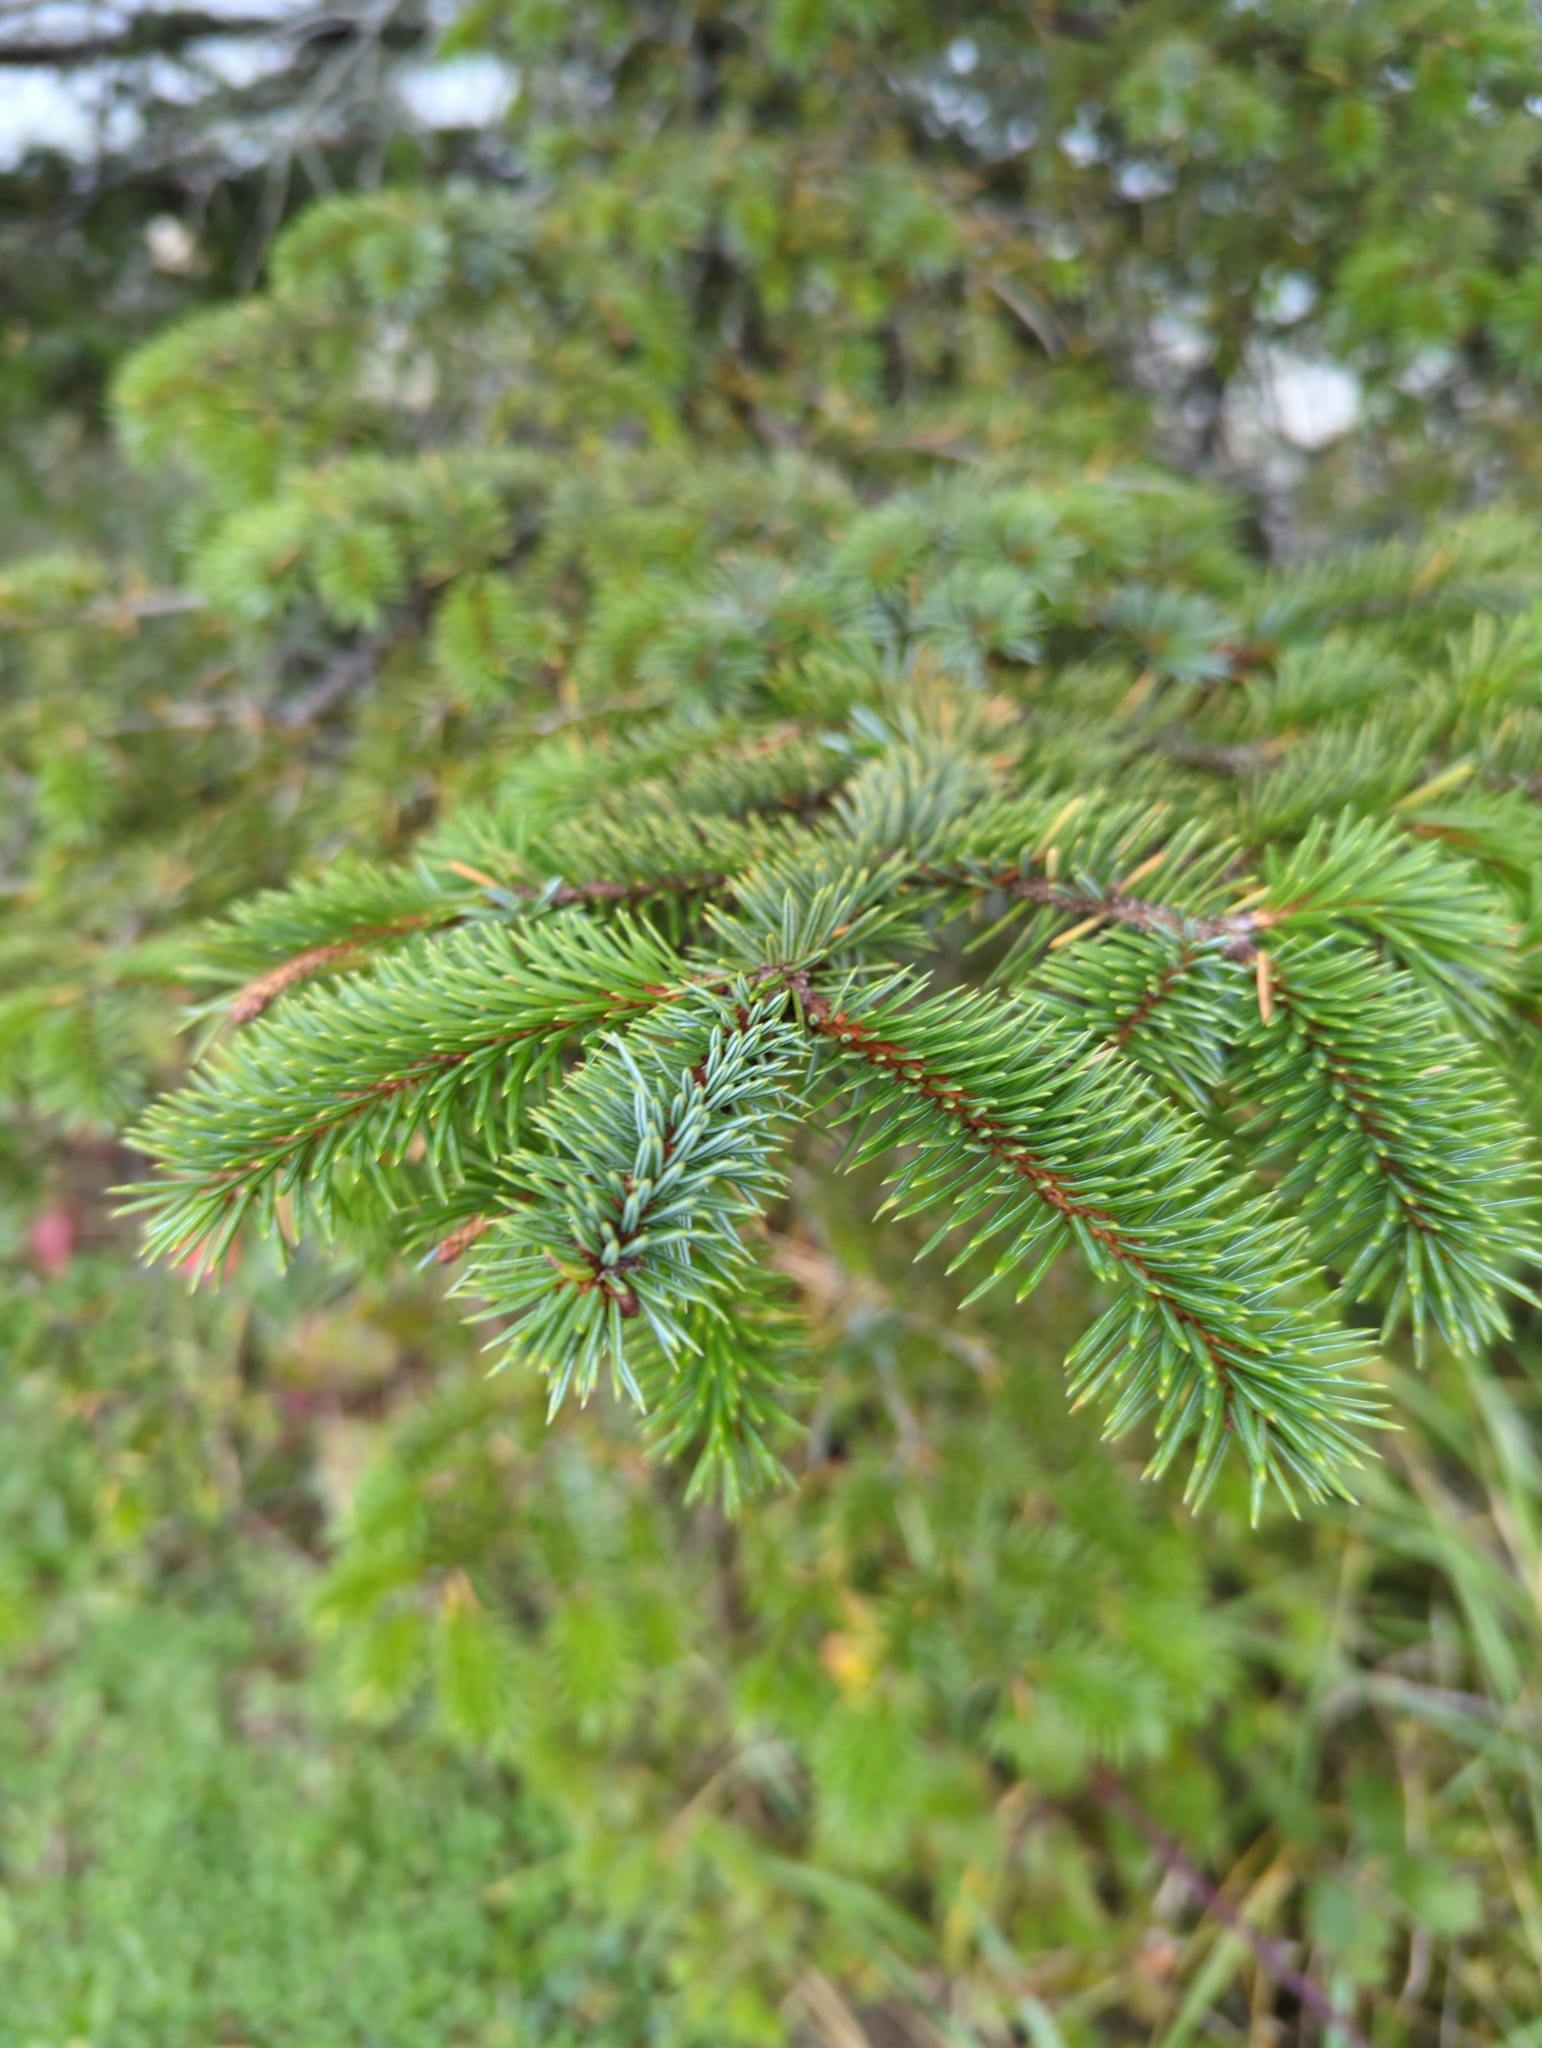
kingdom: Plantae
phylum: Tracheophyta
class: Pinopsida
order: Pinales
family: Pinaceae
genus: Picea
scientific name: Picea sitchensis
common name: Sitka spruce
